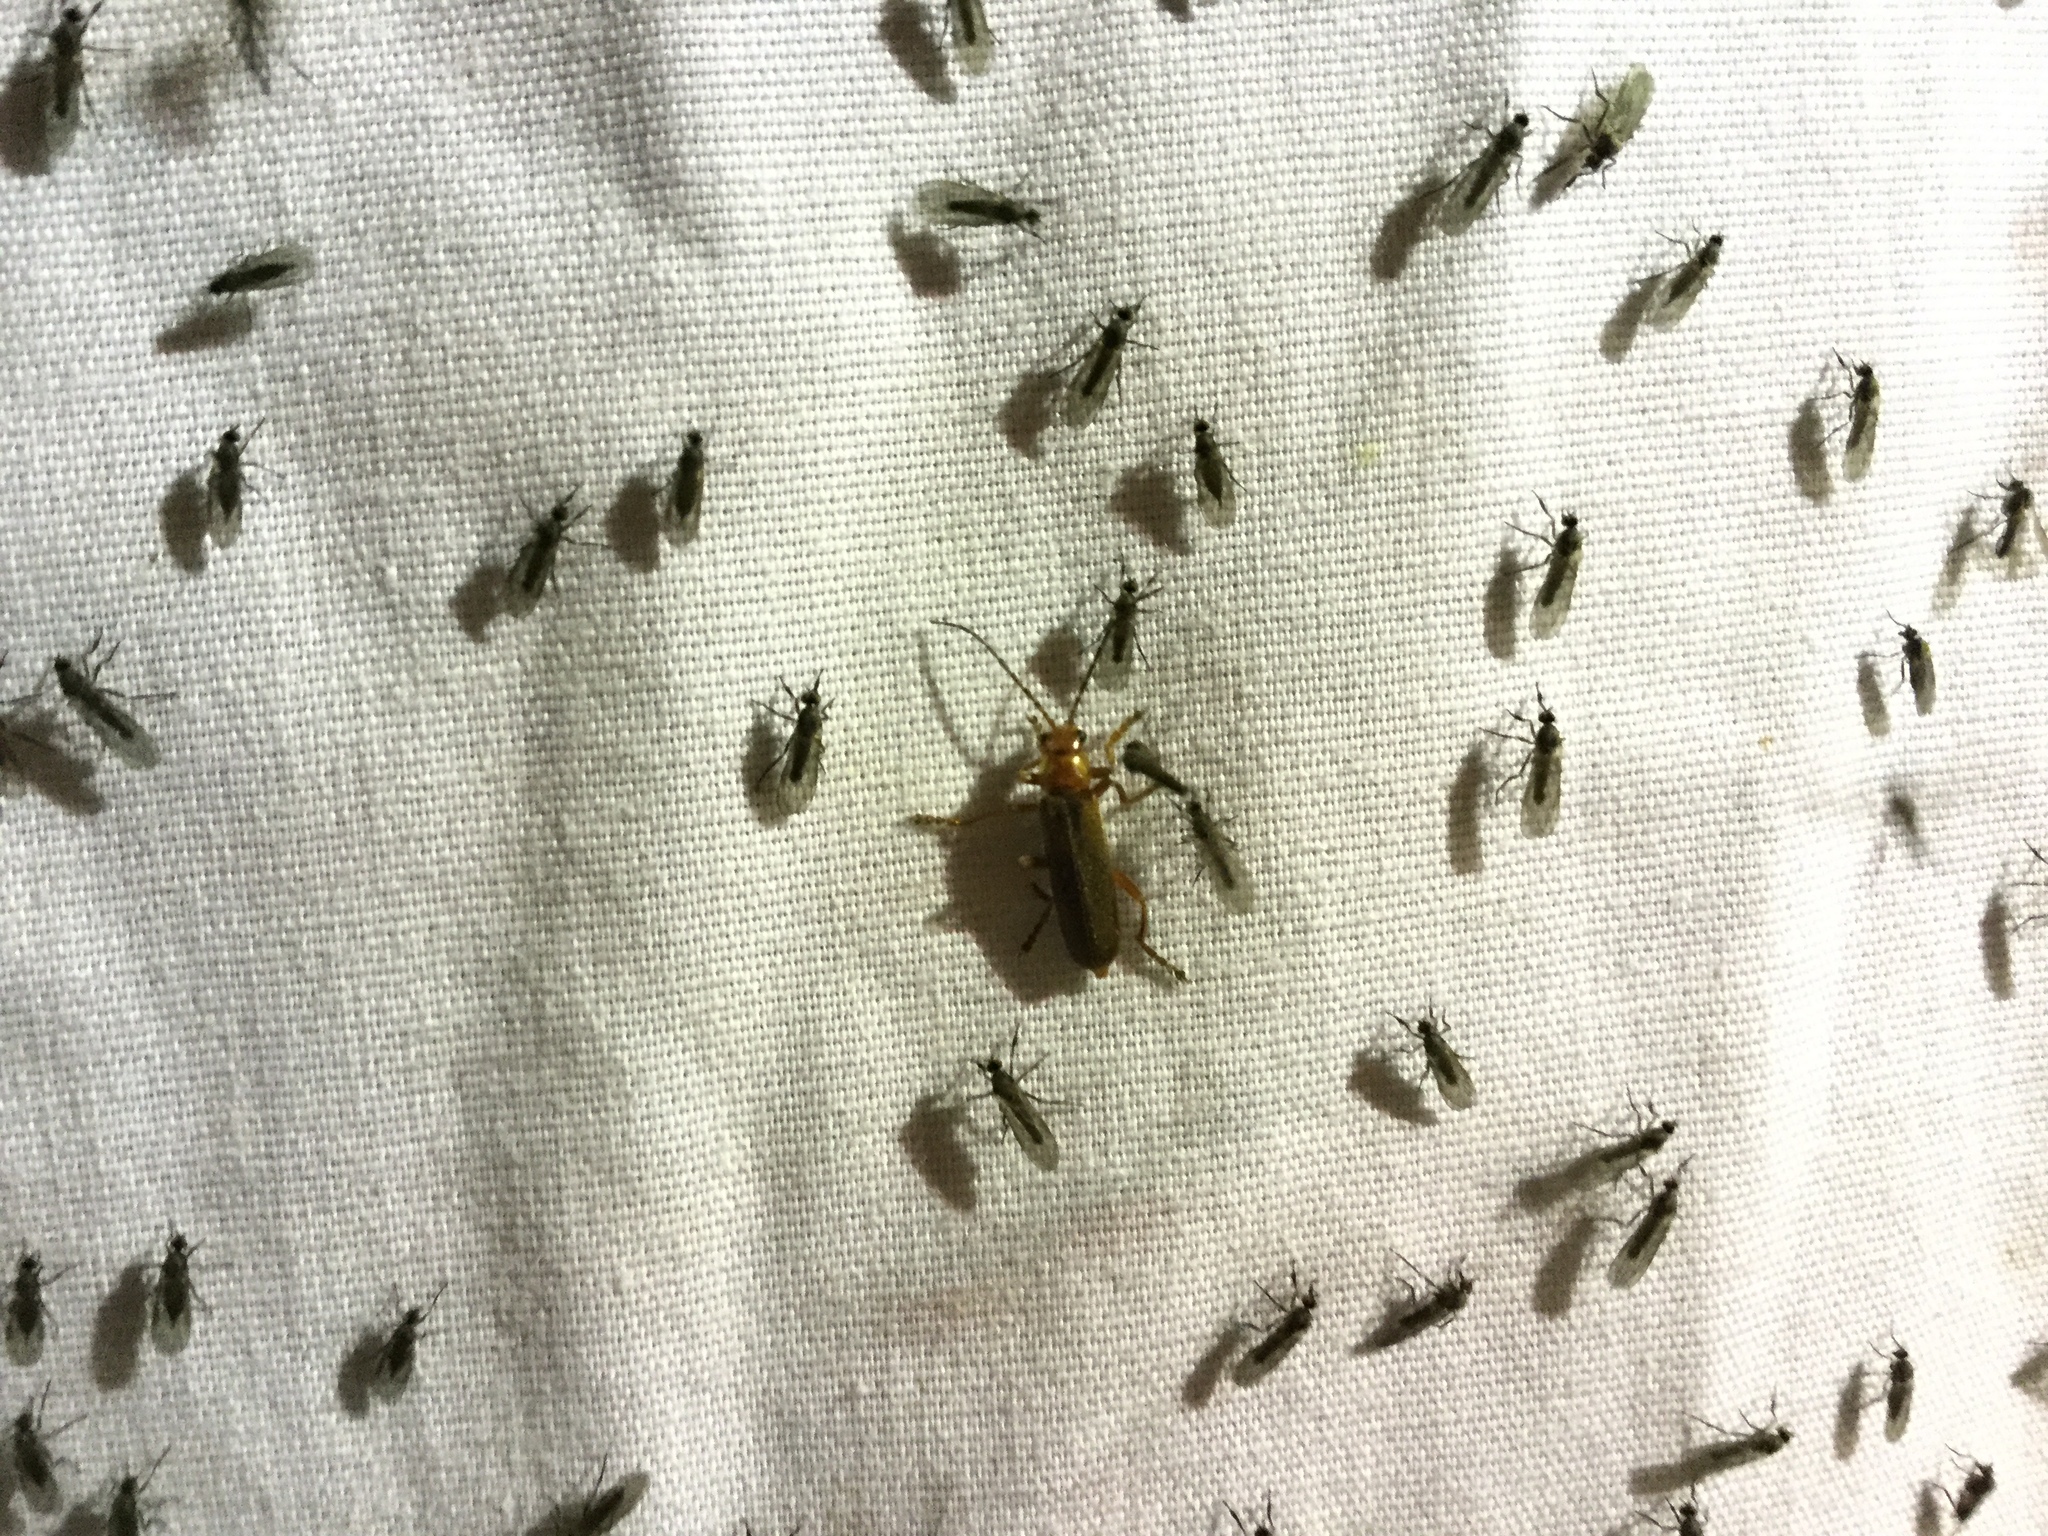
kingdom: Animalia
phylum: Arthropoda
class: Insecta
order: Coleoptera
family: Cantharidae
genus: Cantharis
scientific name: Cantharis rufa
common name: Red-spotted soldier beetle
